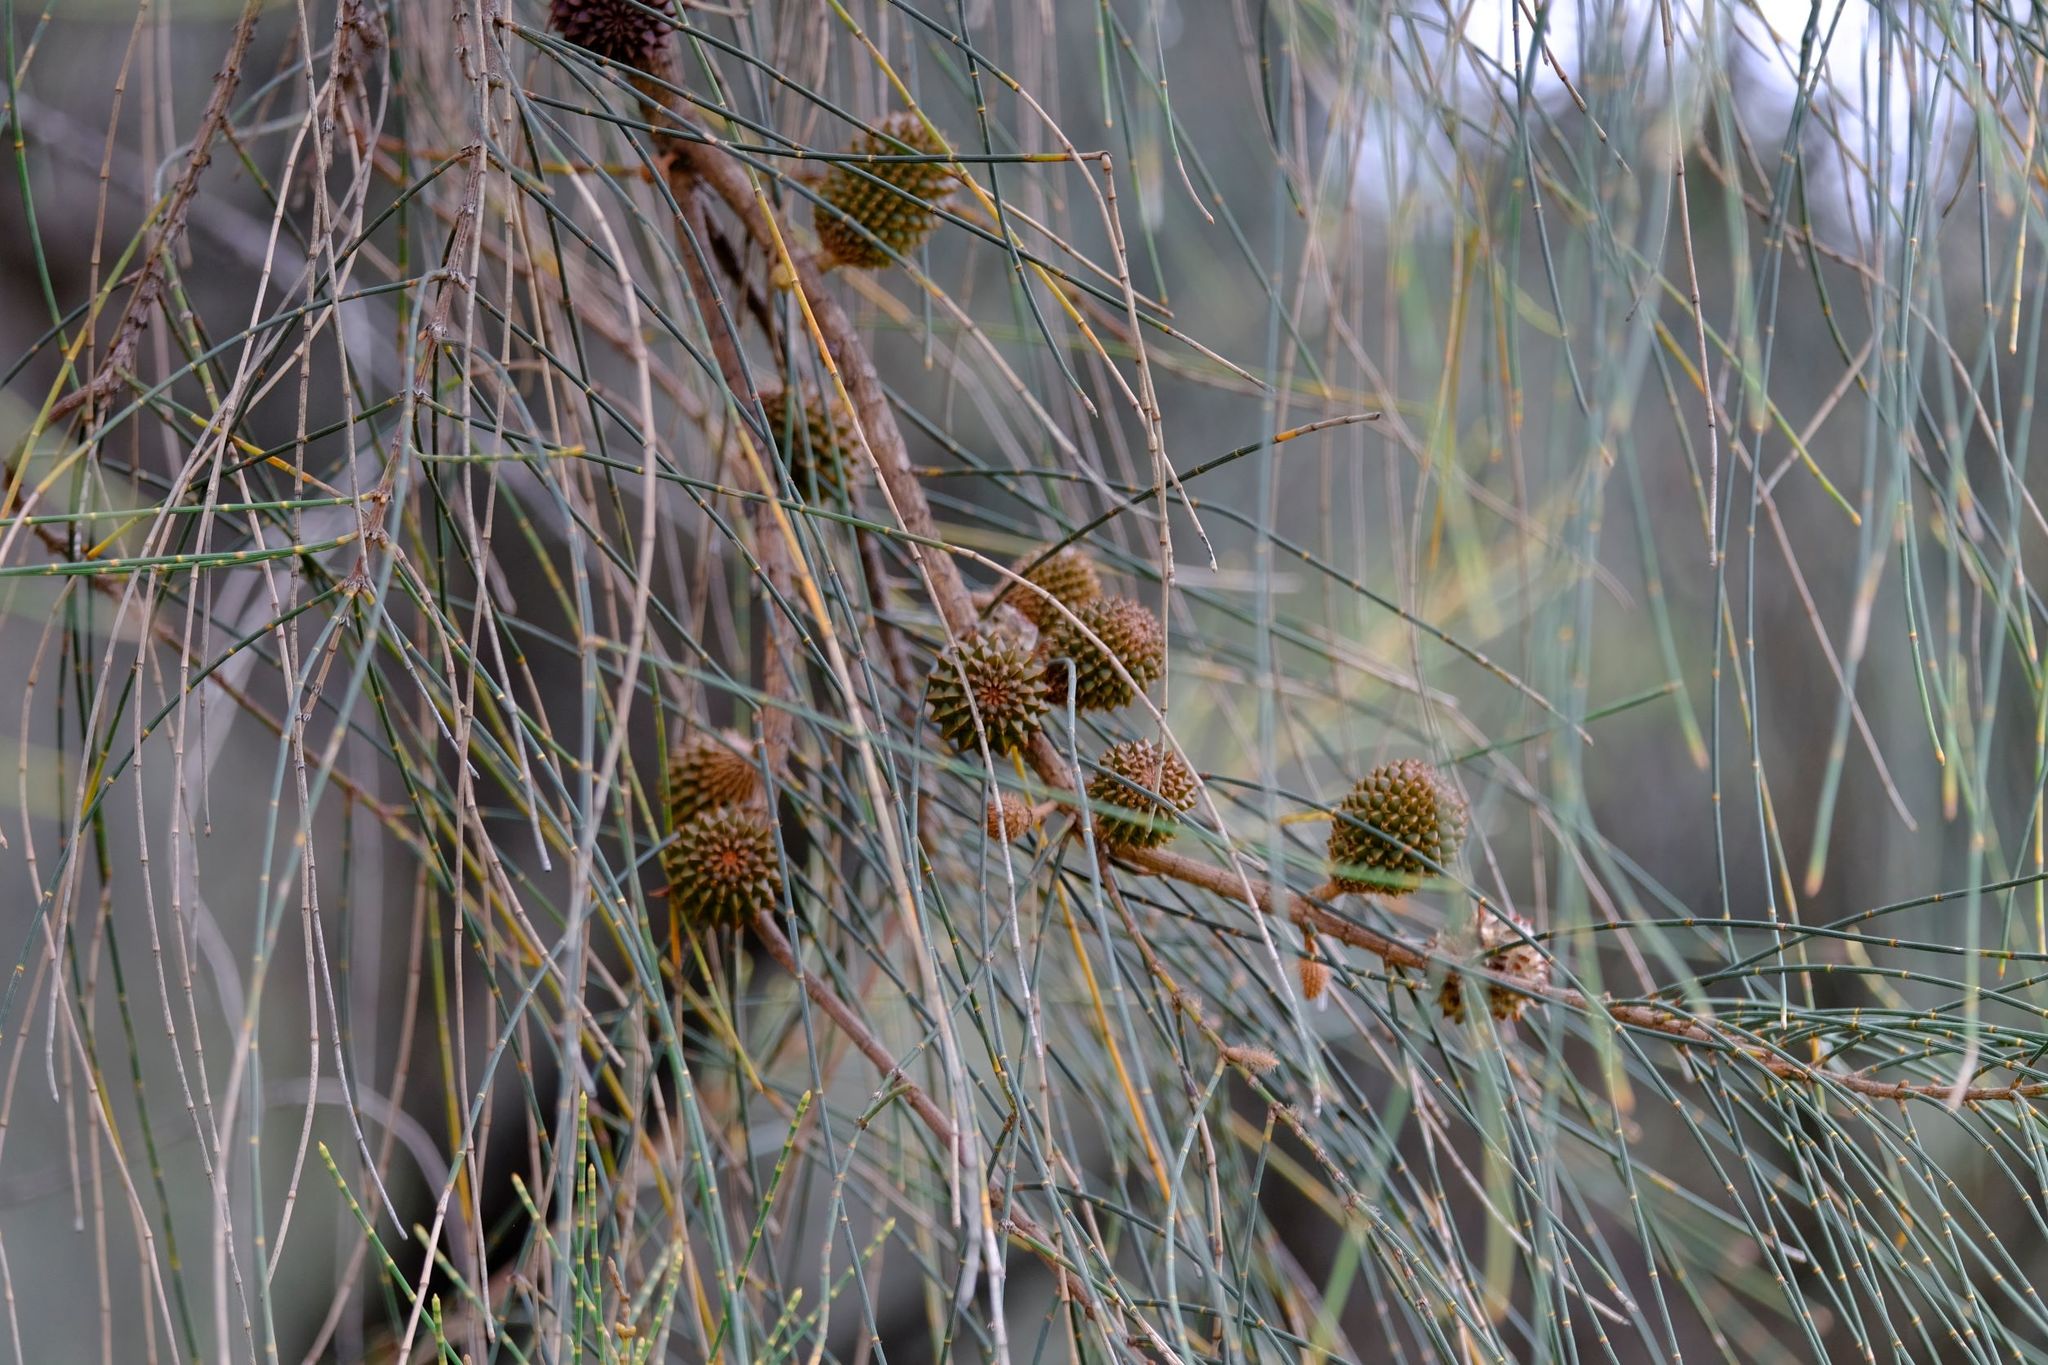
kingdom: Plantae
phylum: Tracheophyta
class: Magnoliopsida
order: Fagales
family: Casuarinaceae
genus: Allocasuarina
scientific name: Allocasuarina verticillata
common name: Drooping she-oak
